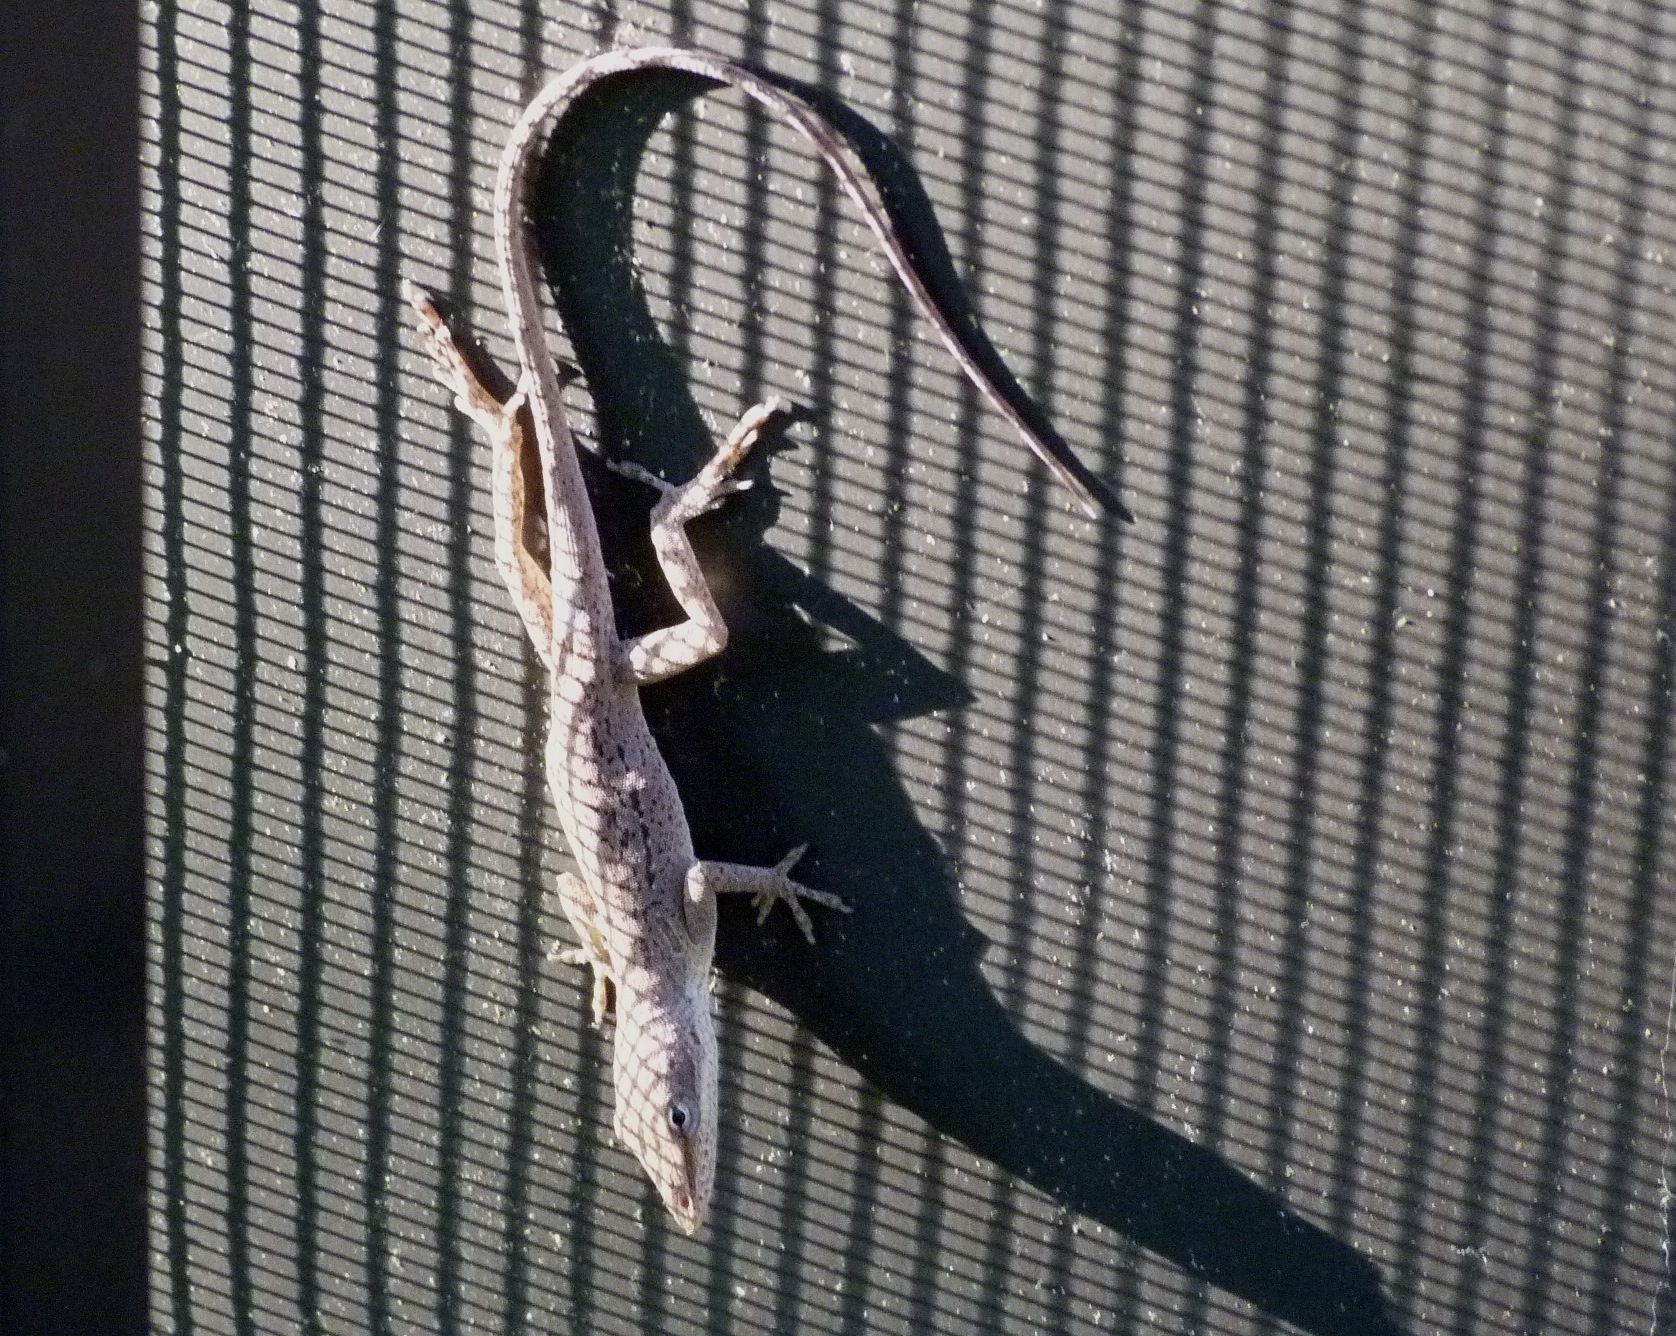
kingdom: Animalia
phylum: Chordata
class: Squamata
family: Dactyloidae
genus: Anolis
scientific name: Anolis carolinensis
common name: Green anole
